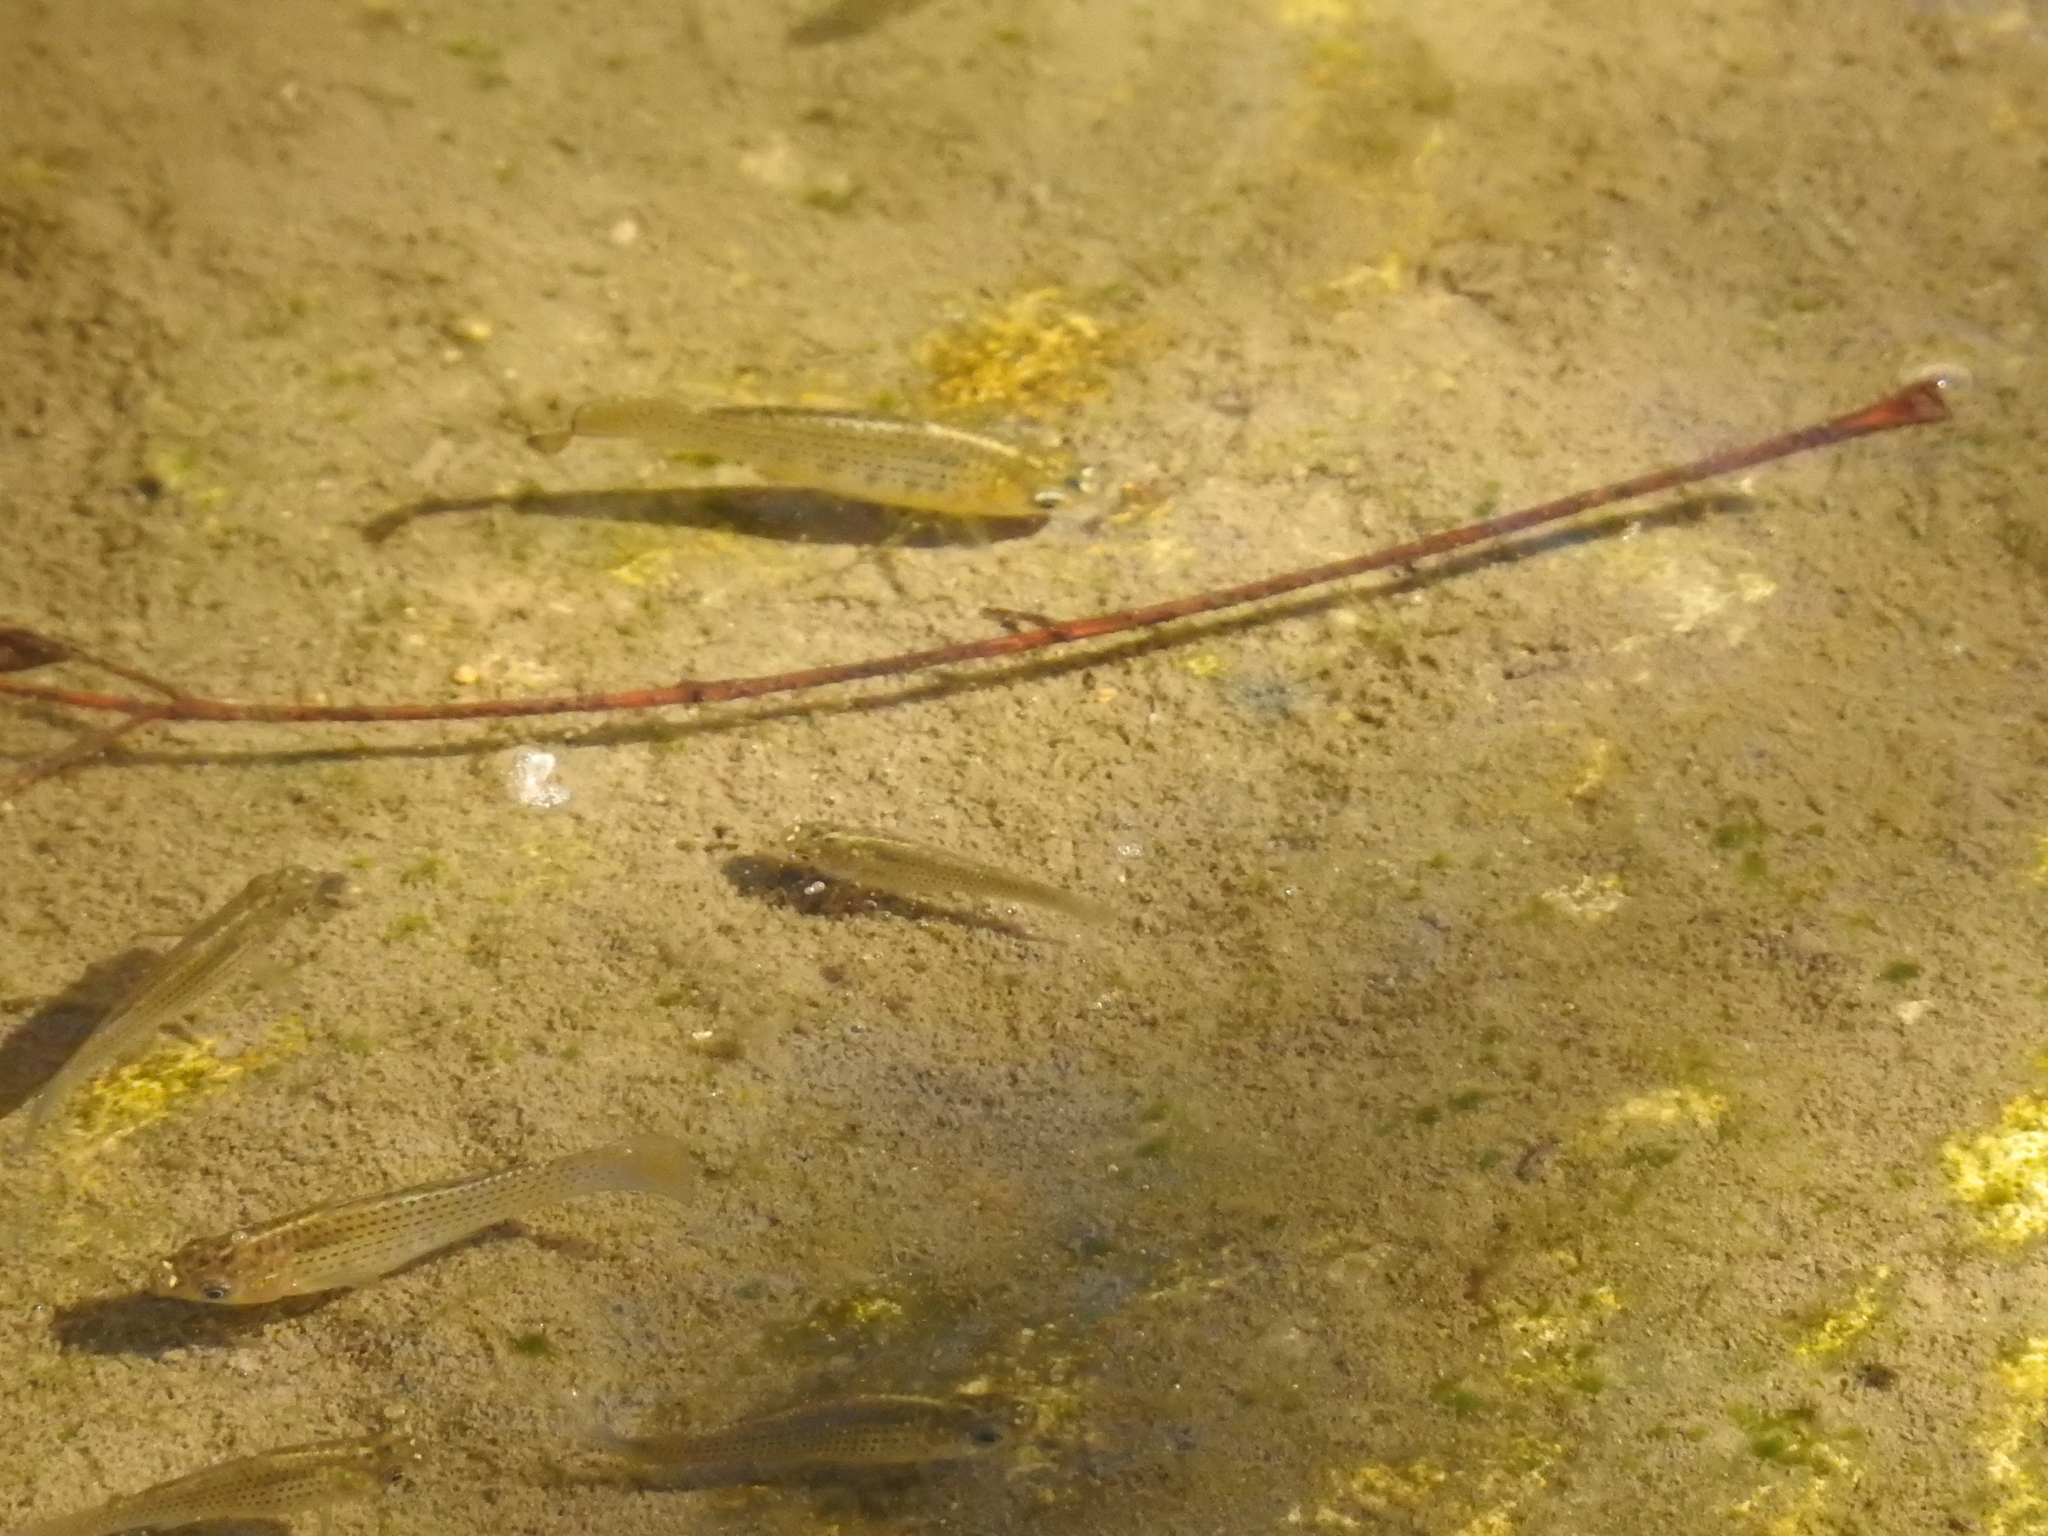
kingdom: Animalia
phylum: Chordata
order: Cyprinodontiformes
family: Poeciliidae
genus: Poecilia
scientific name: Poecilia latipinna
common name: Sailfin molly
